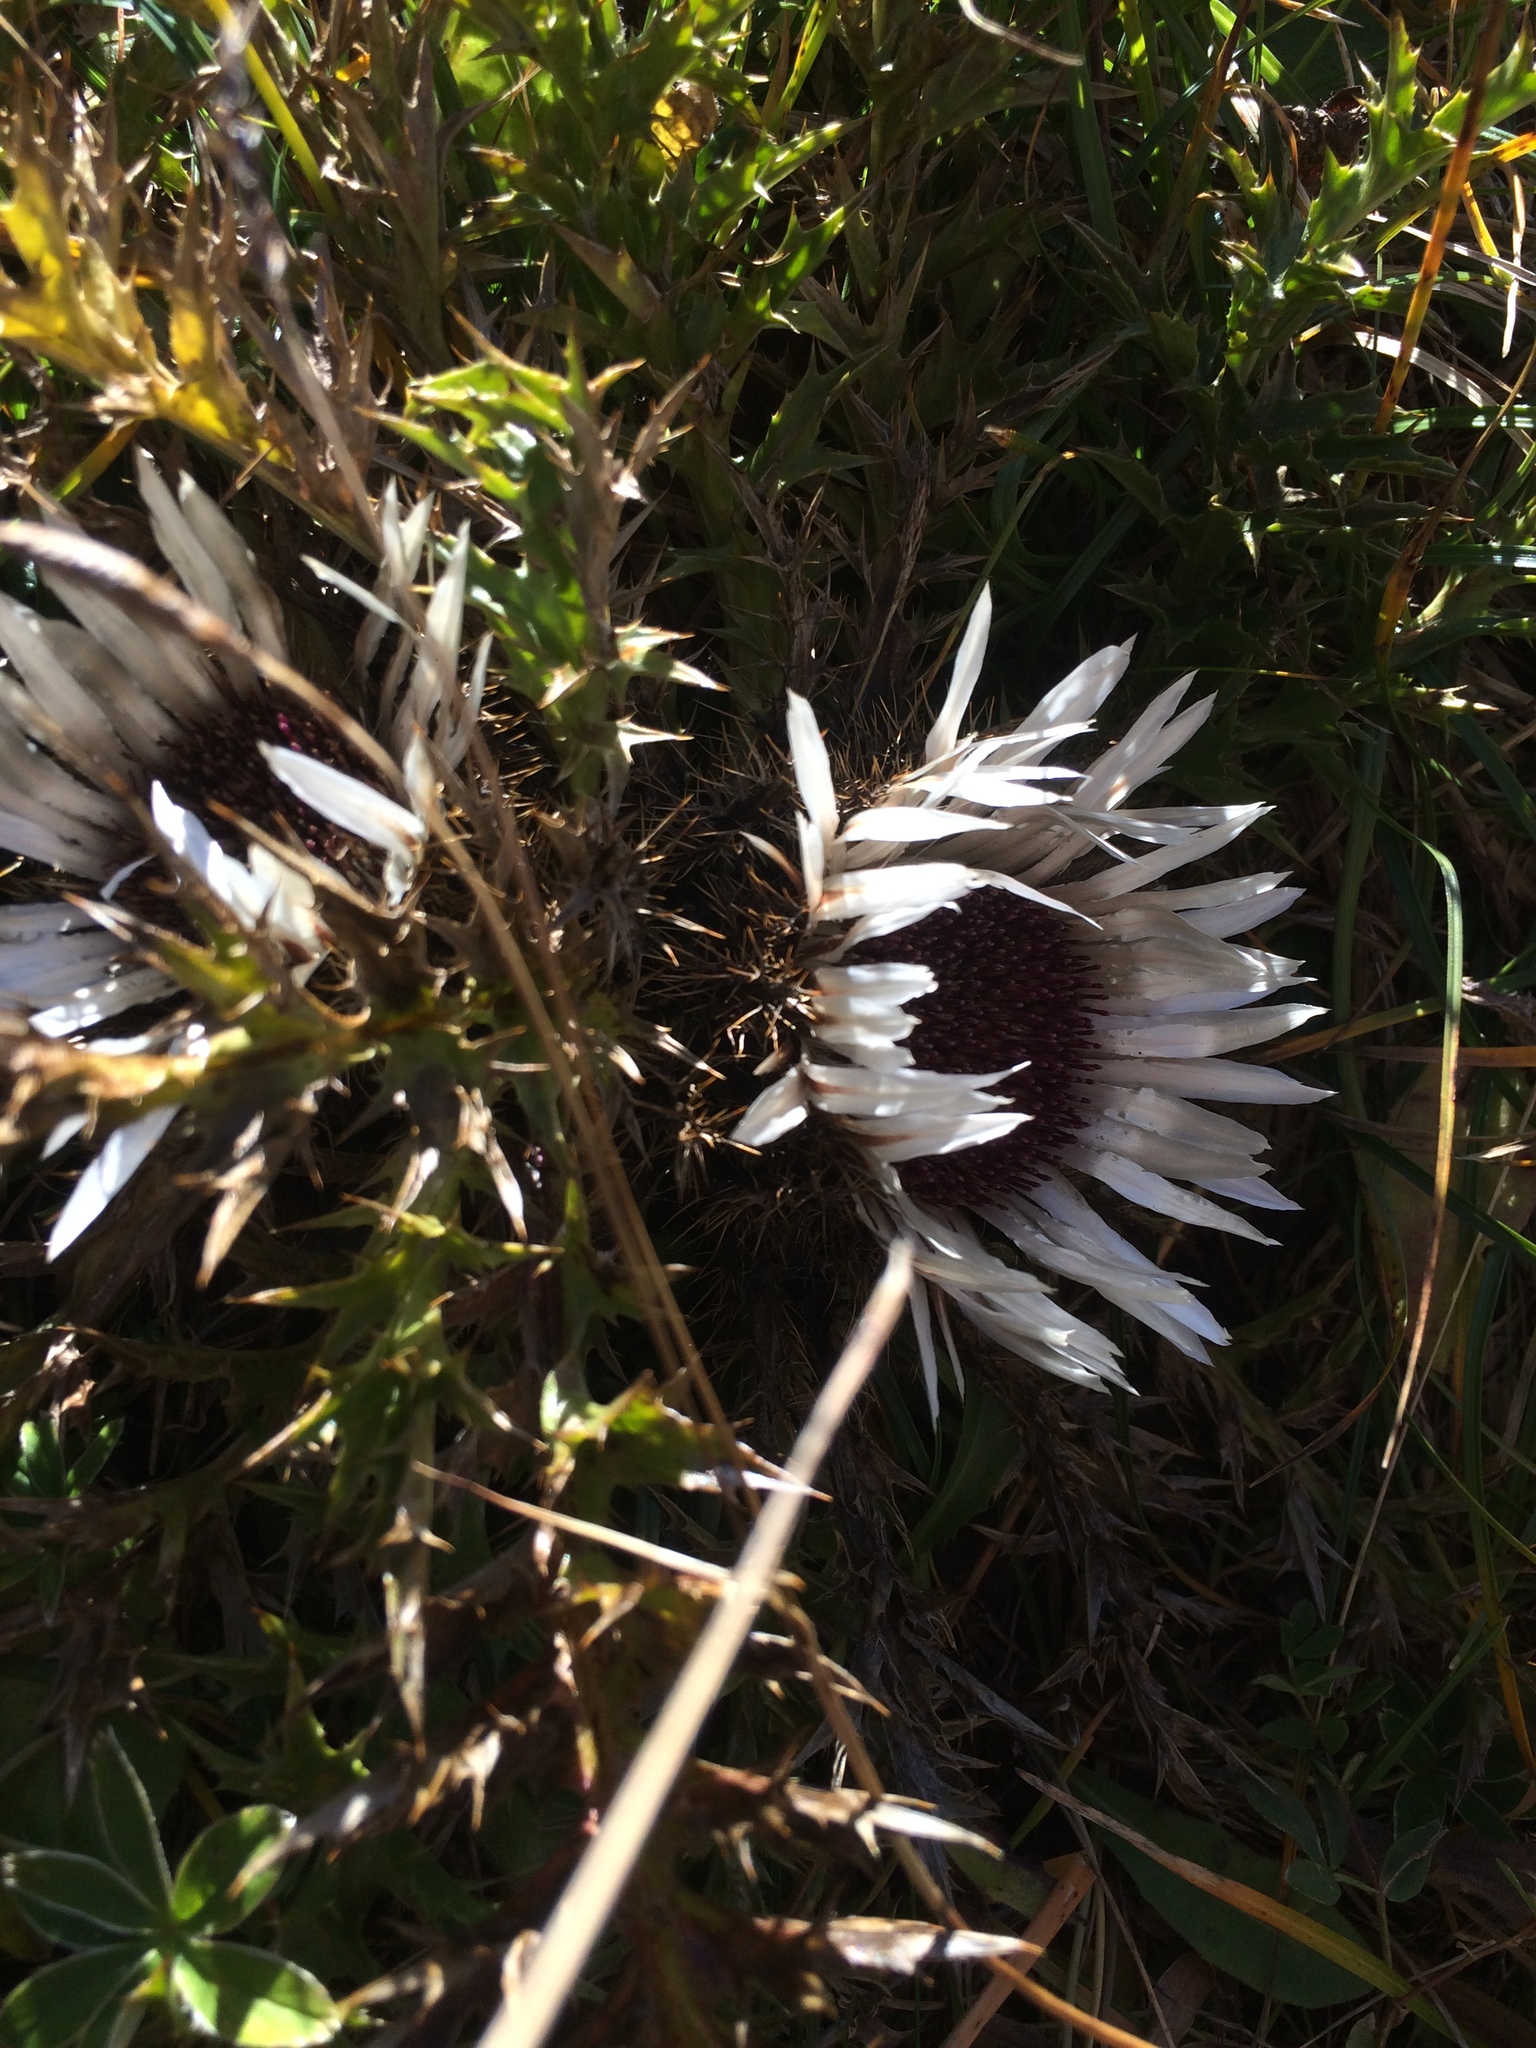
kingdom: Plantae
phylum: Tracheophyta
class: Magnoliopsida
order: Asterales
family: Asteraceae
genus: Carlina
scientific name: Carlina acaulis
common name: Stemless carline thistle
